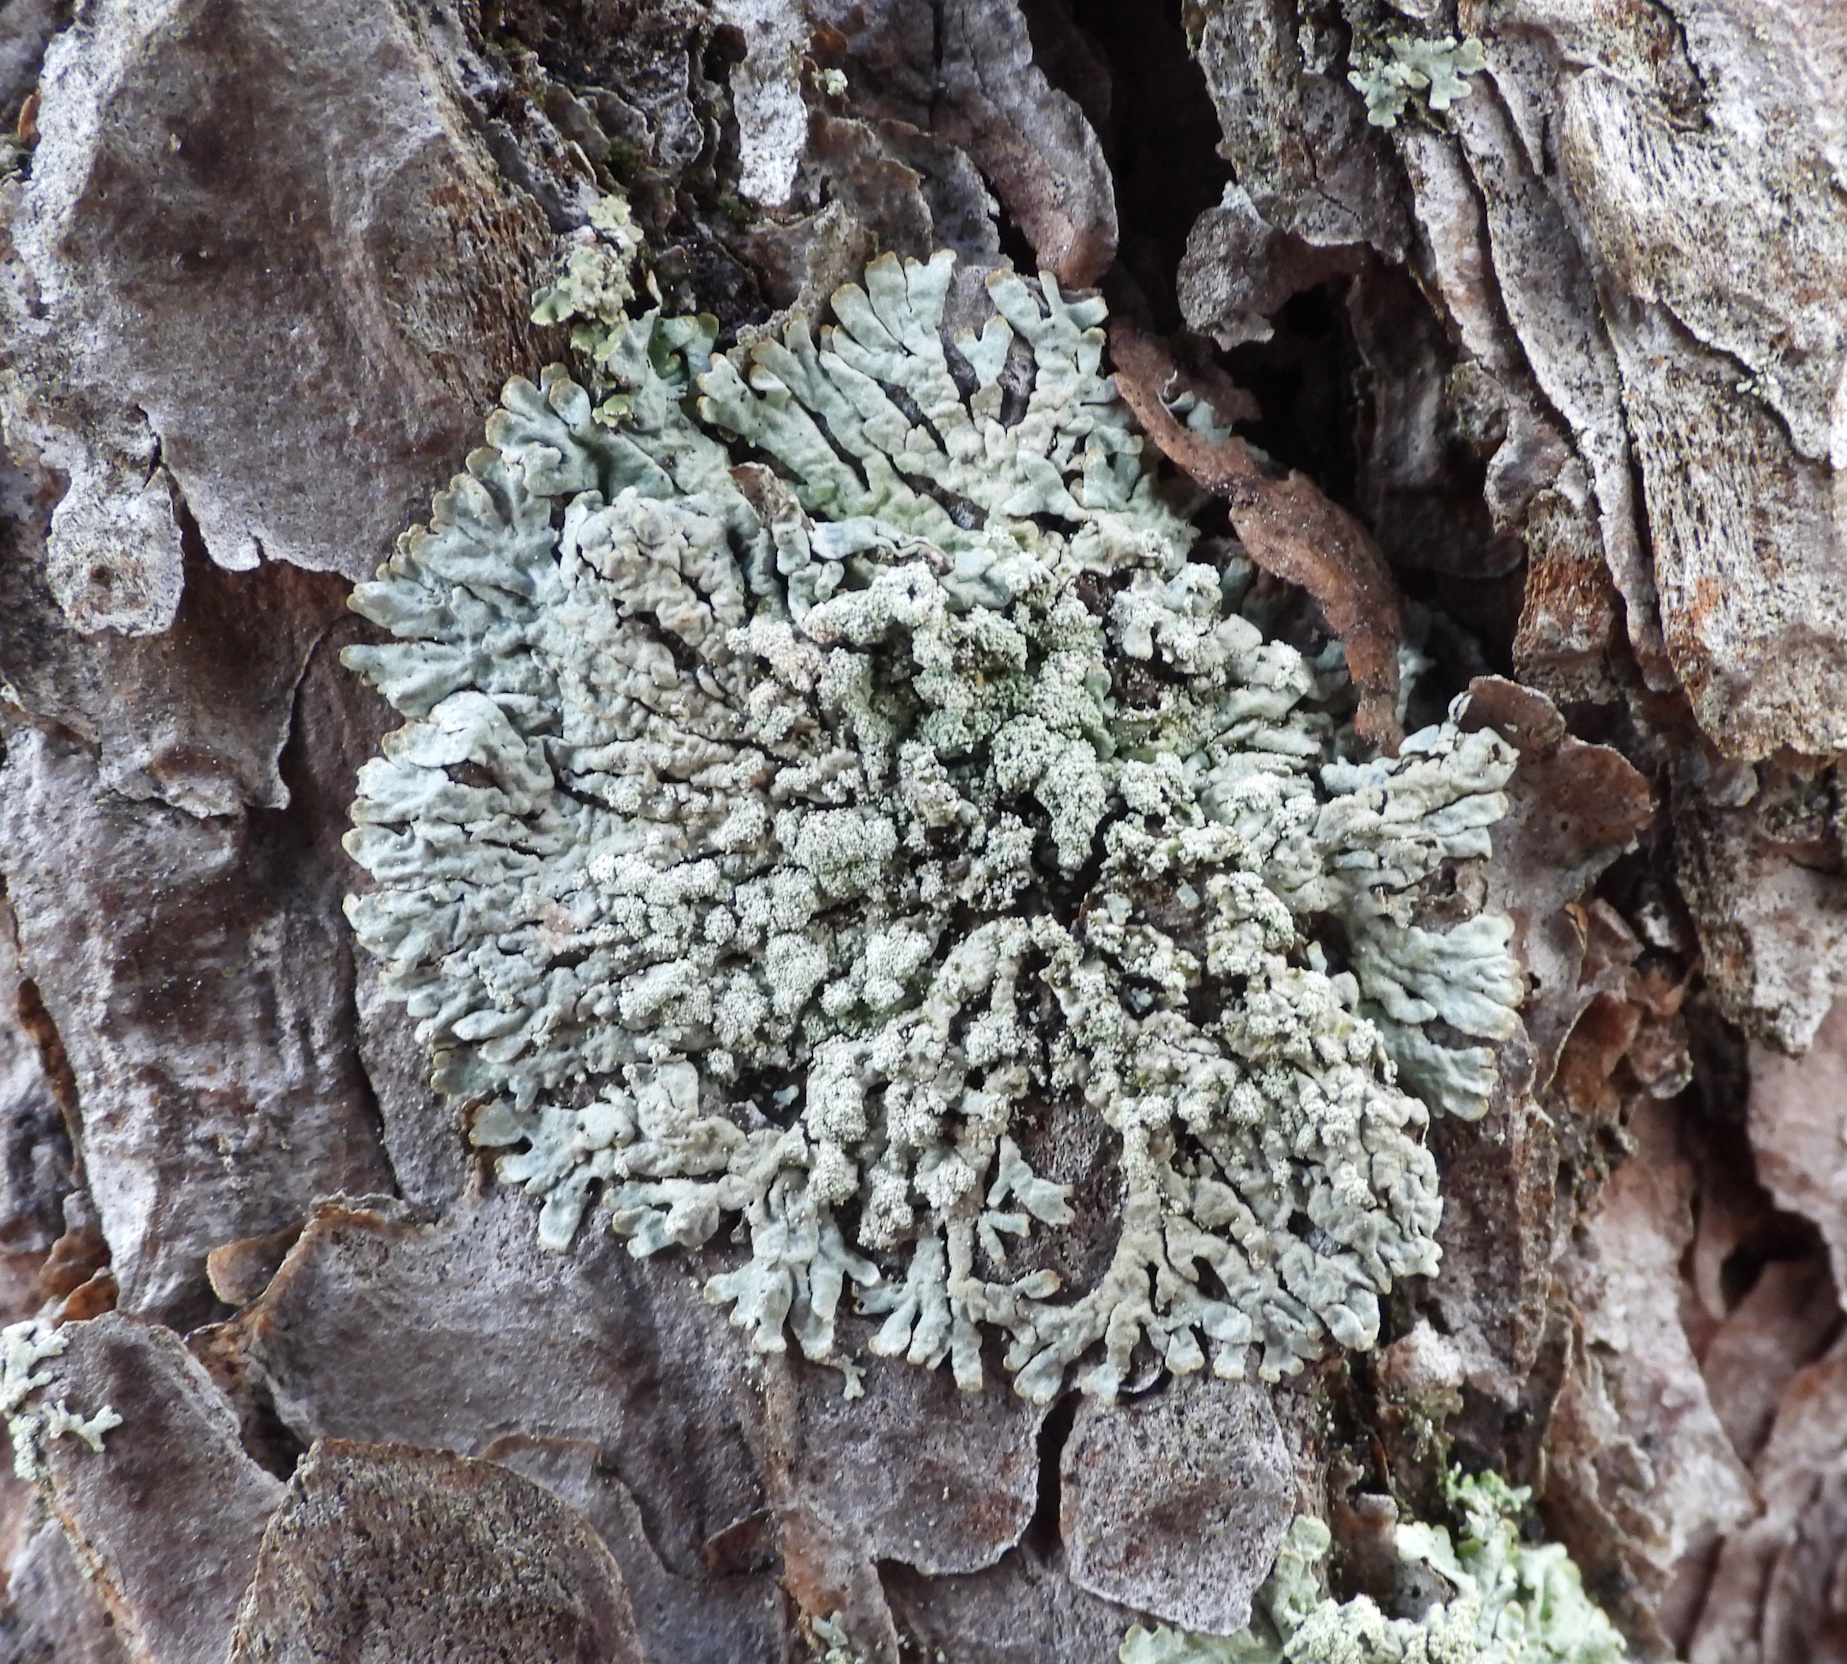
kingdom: Fungi
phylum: Ascomycota
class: Lecanoromycetes
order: Lecanorales
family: Parmeliaceae
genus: Parmeliopsis
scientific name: Parmeliopsis hyperopta
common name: Grey starburst lichen
